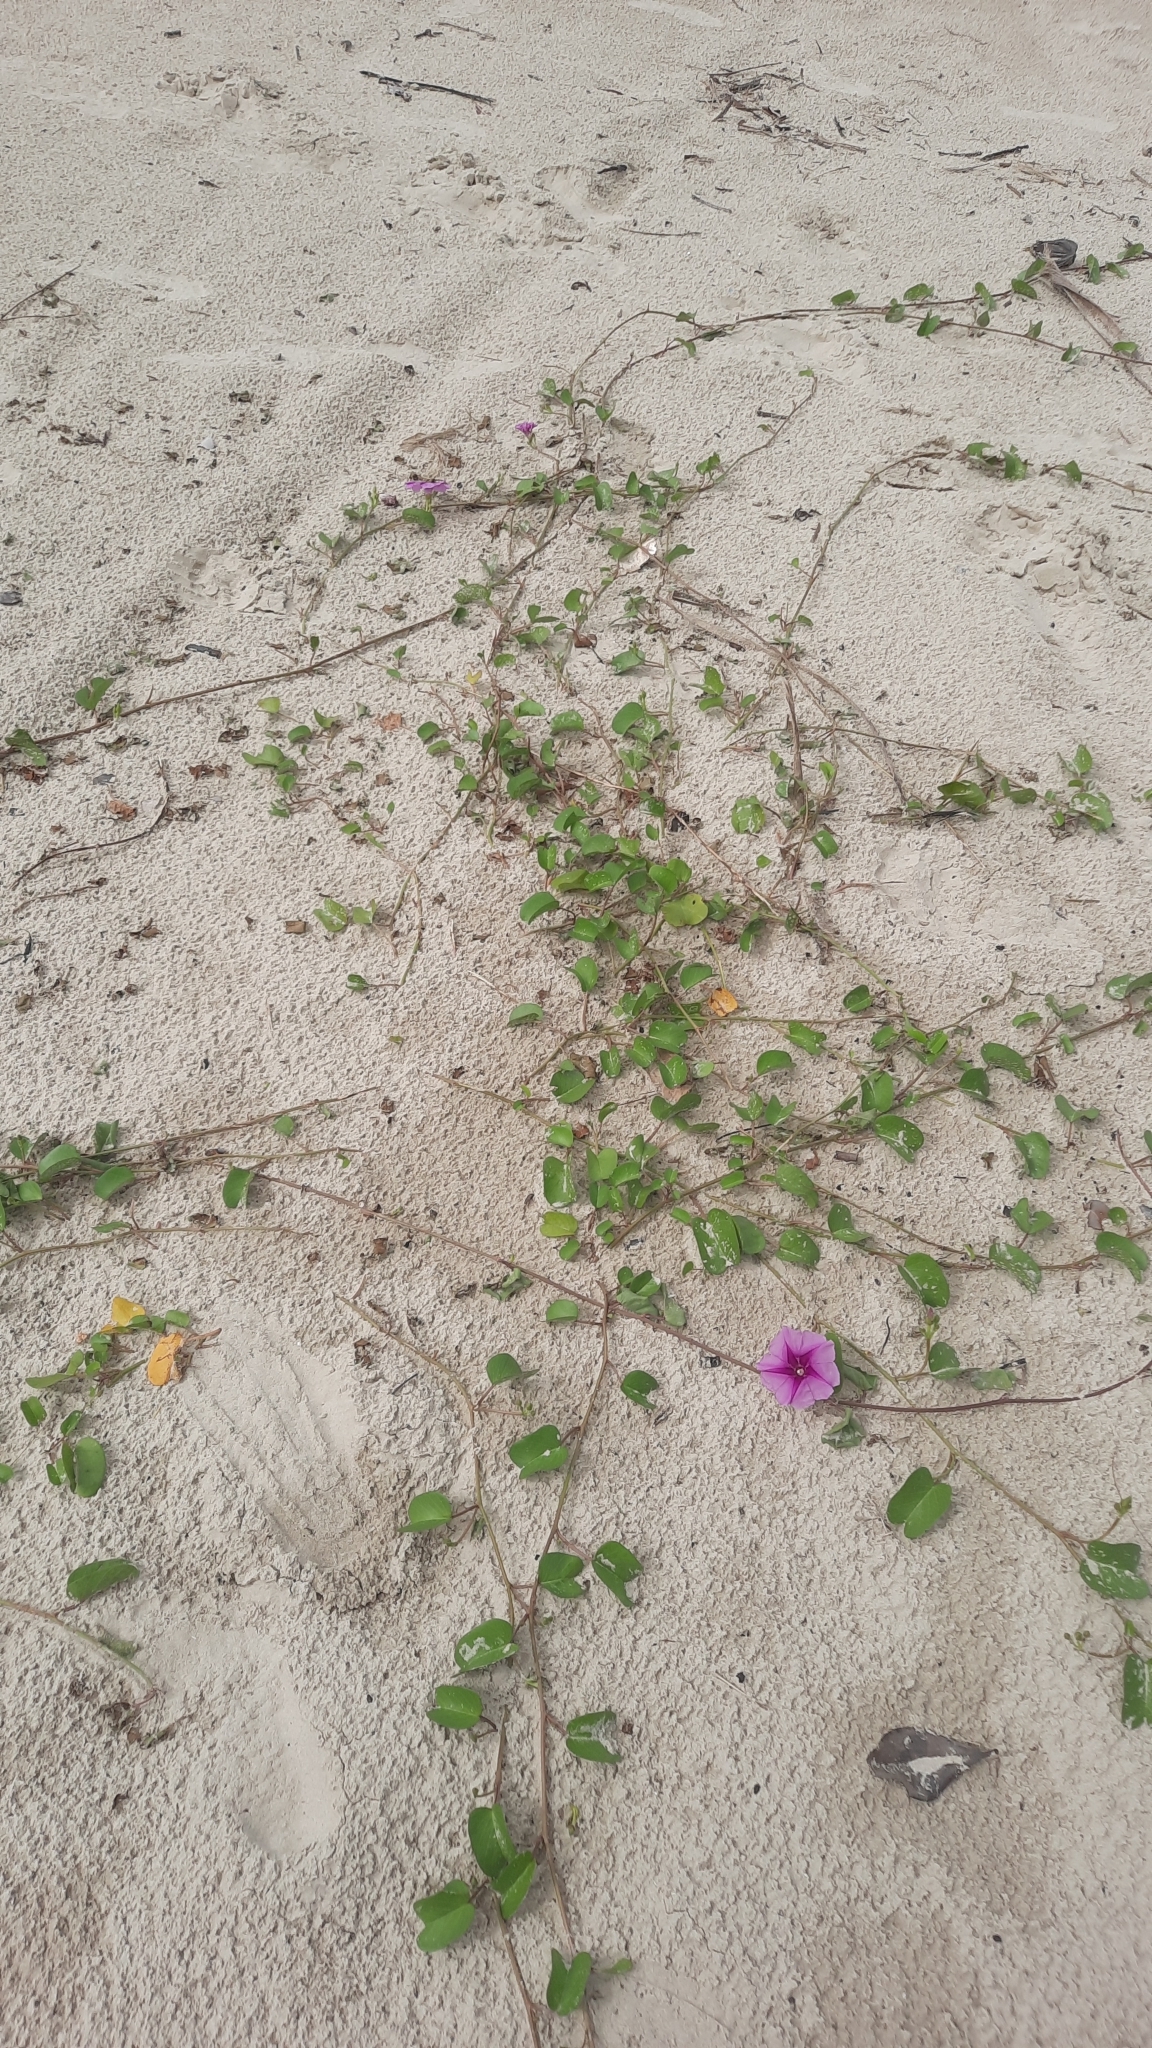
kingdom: Plantae
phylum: Tracheophyta
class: Magnoliopsida
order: Solanales
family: Convolvulaceae
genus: Ipomoea
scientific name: Ipomoea pes-caprae
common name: Beach morning glory
